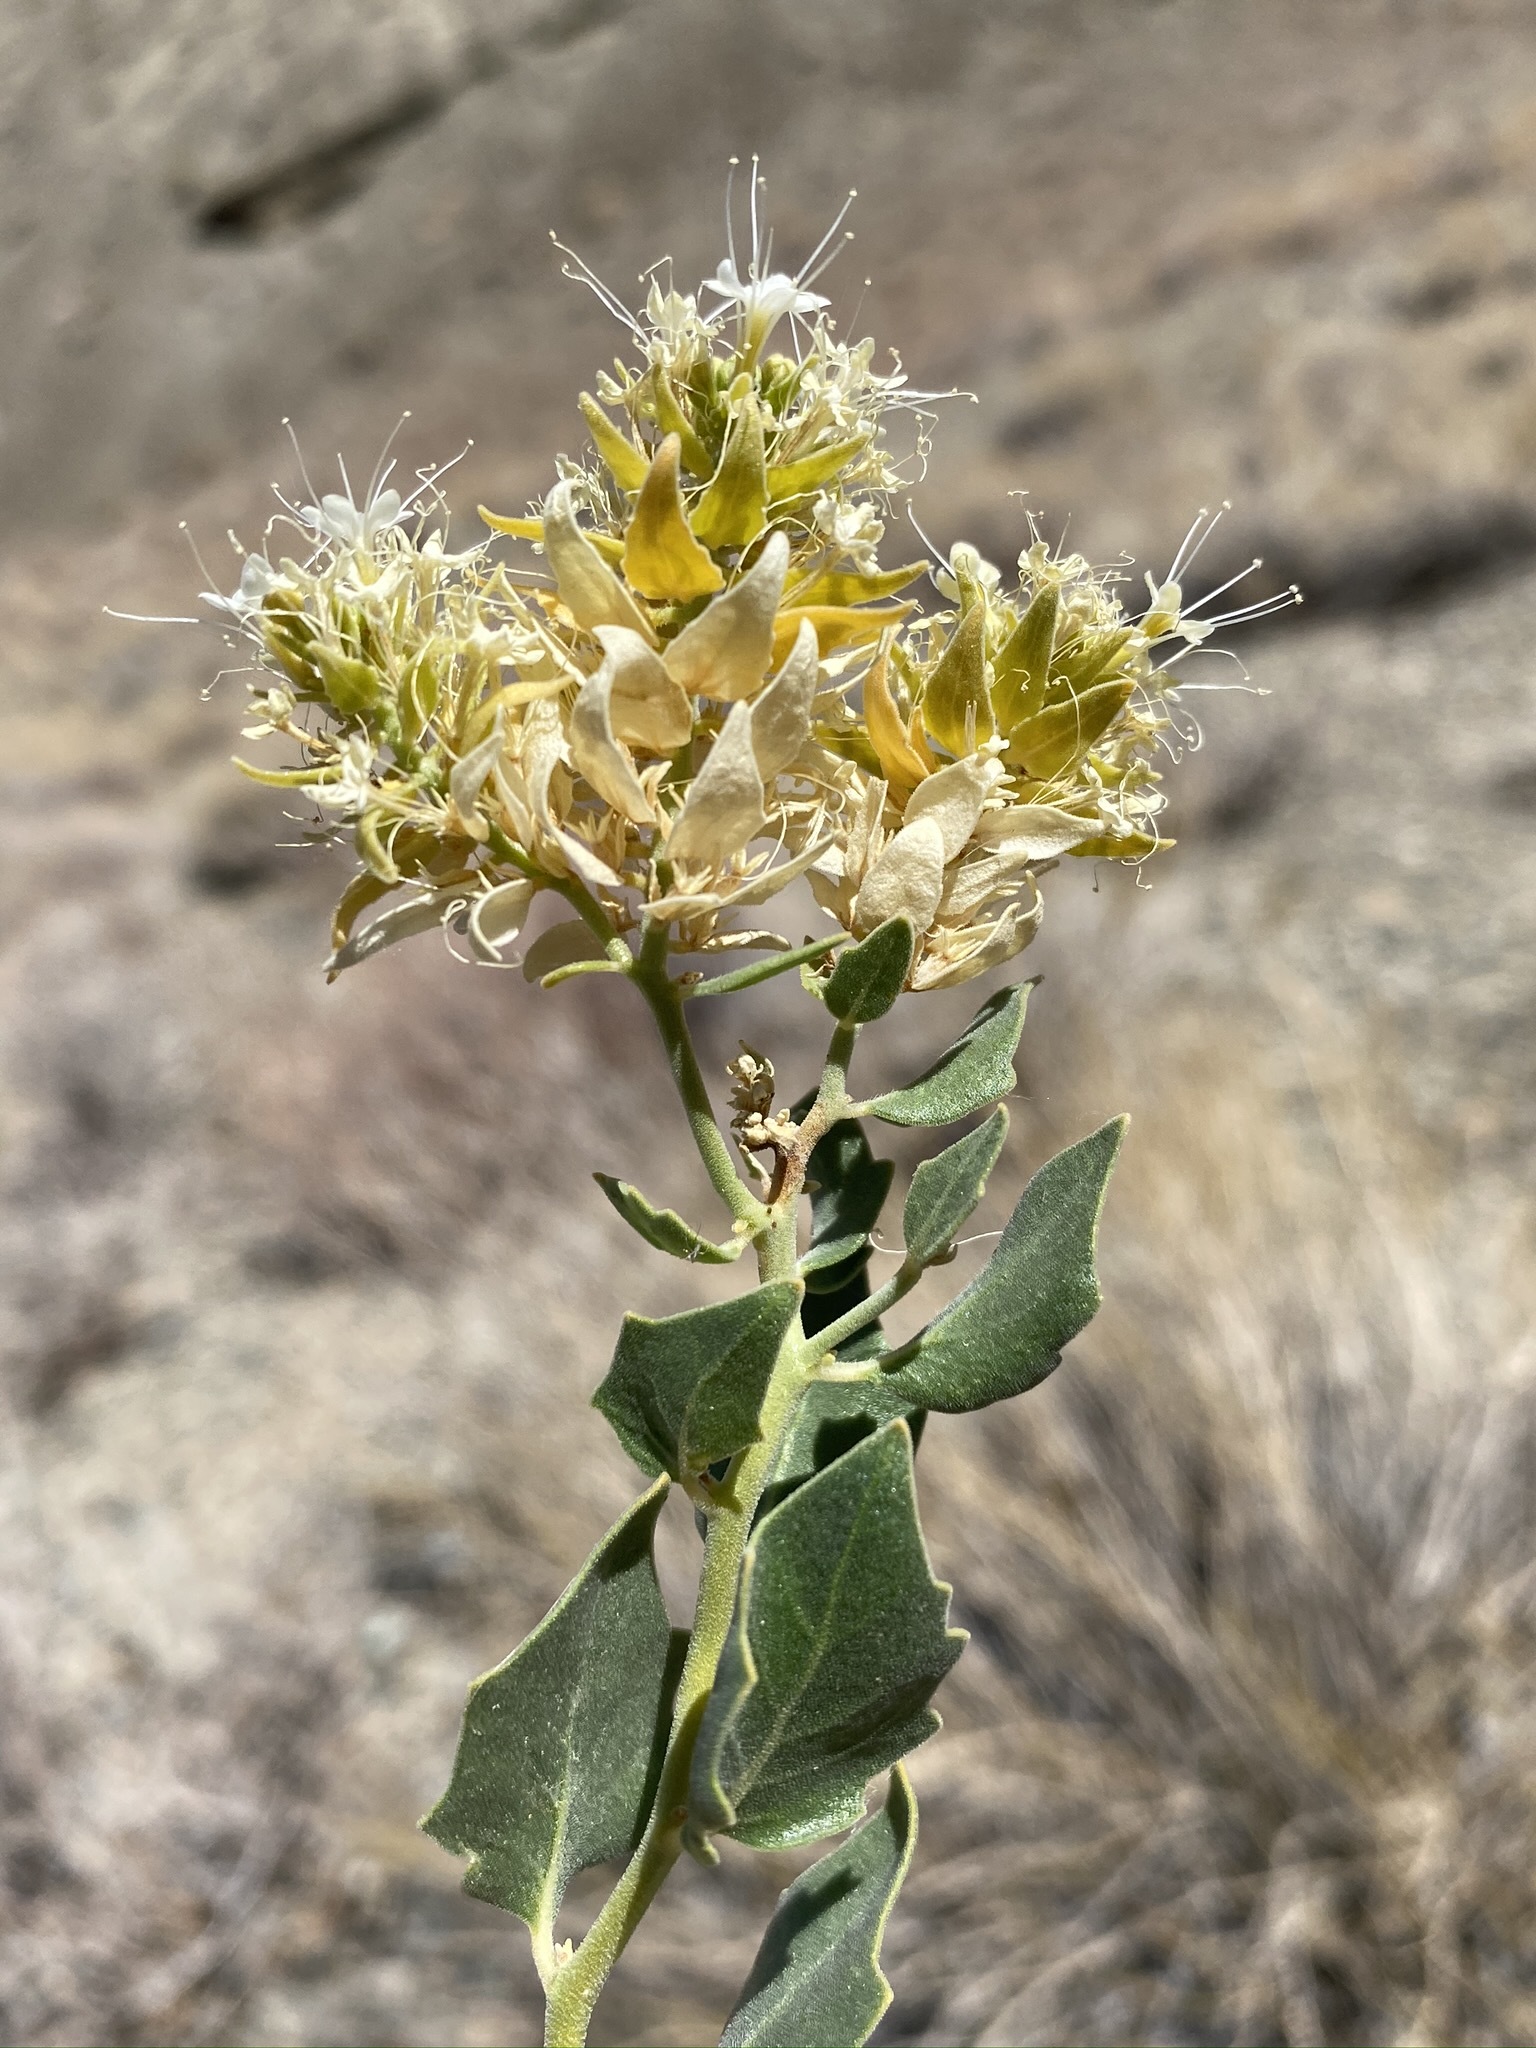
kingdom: Plantae
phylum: Tracheophyta
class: Magnoliopsida
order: Cornales
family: Loasaceae
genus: Petalonyx
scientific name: Petalonyx nitidus
